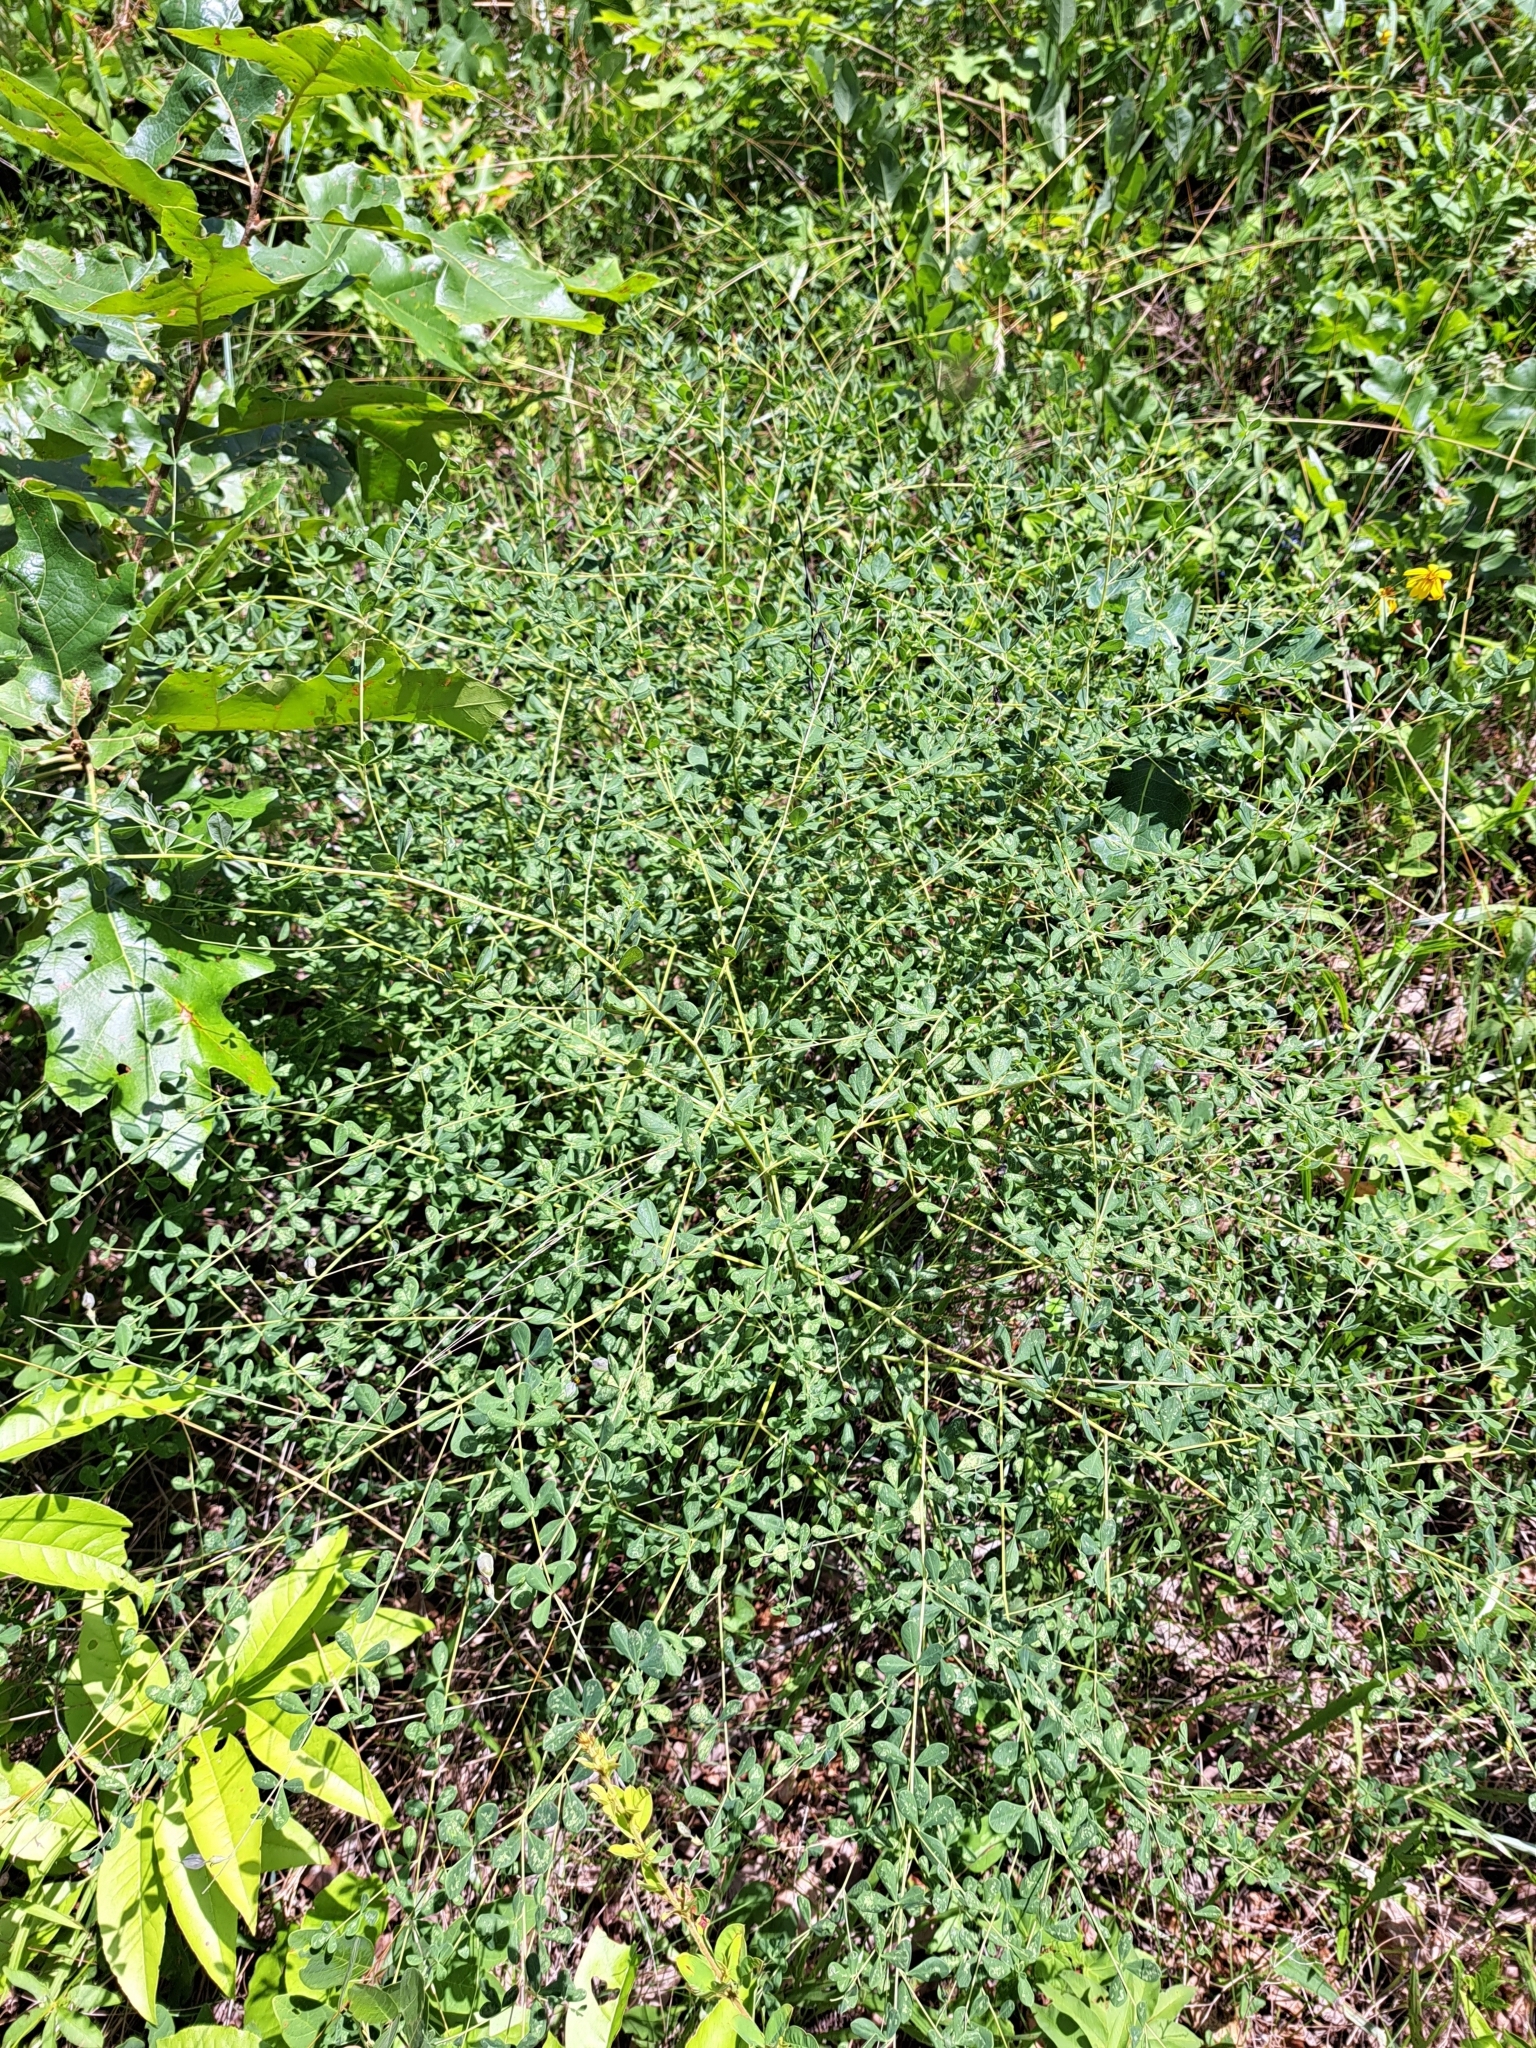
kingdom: Plantae
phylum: Tracheophyta
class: Magnoliopsida
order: Fabales
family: Fabaceae
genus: Baptisia
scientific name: Baptisia tinctoria
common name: Wild indigo
